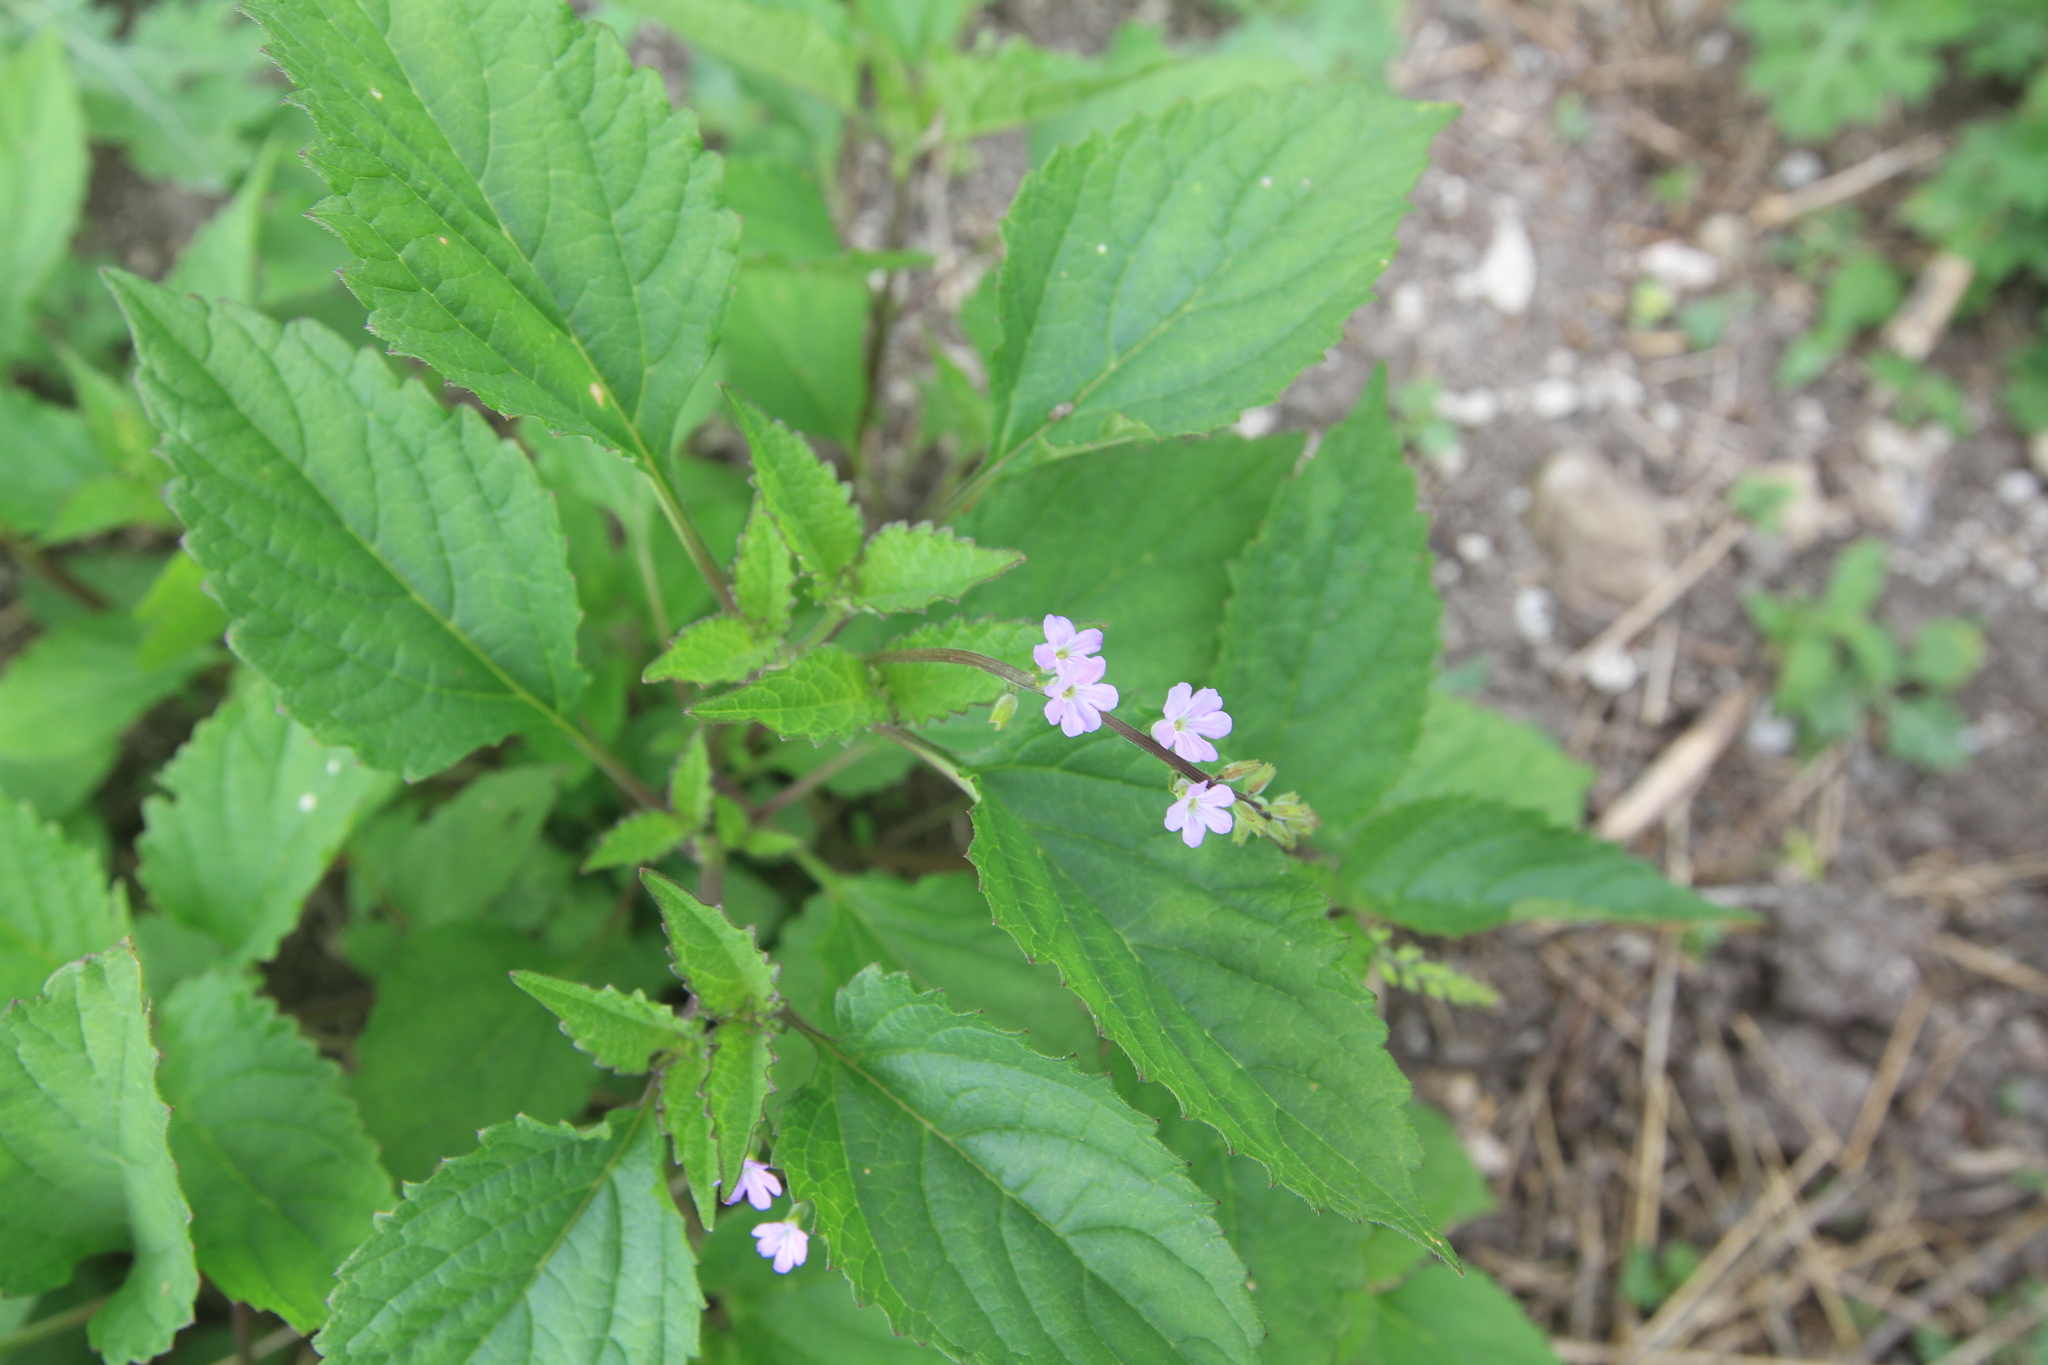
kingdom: Plantae
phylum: Tracheophyta
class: Magnoliopsida
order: Lamiales
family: Verbenaceae
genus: Priva
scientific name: Priva lappulacea
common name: Fasten-'pon-coat
